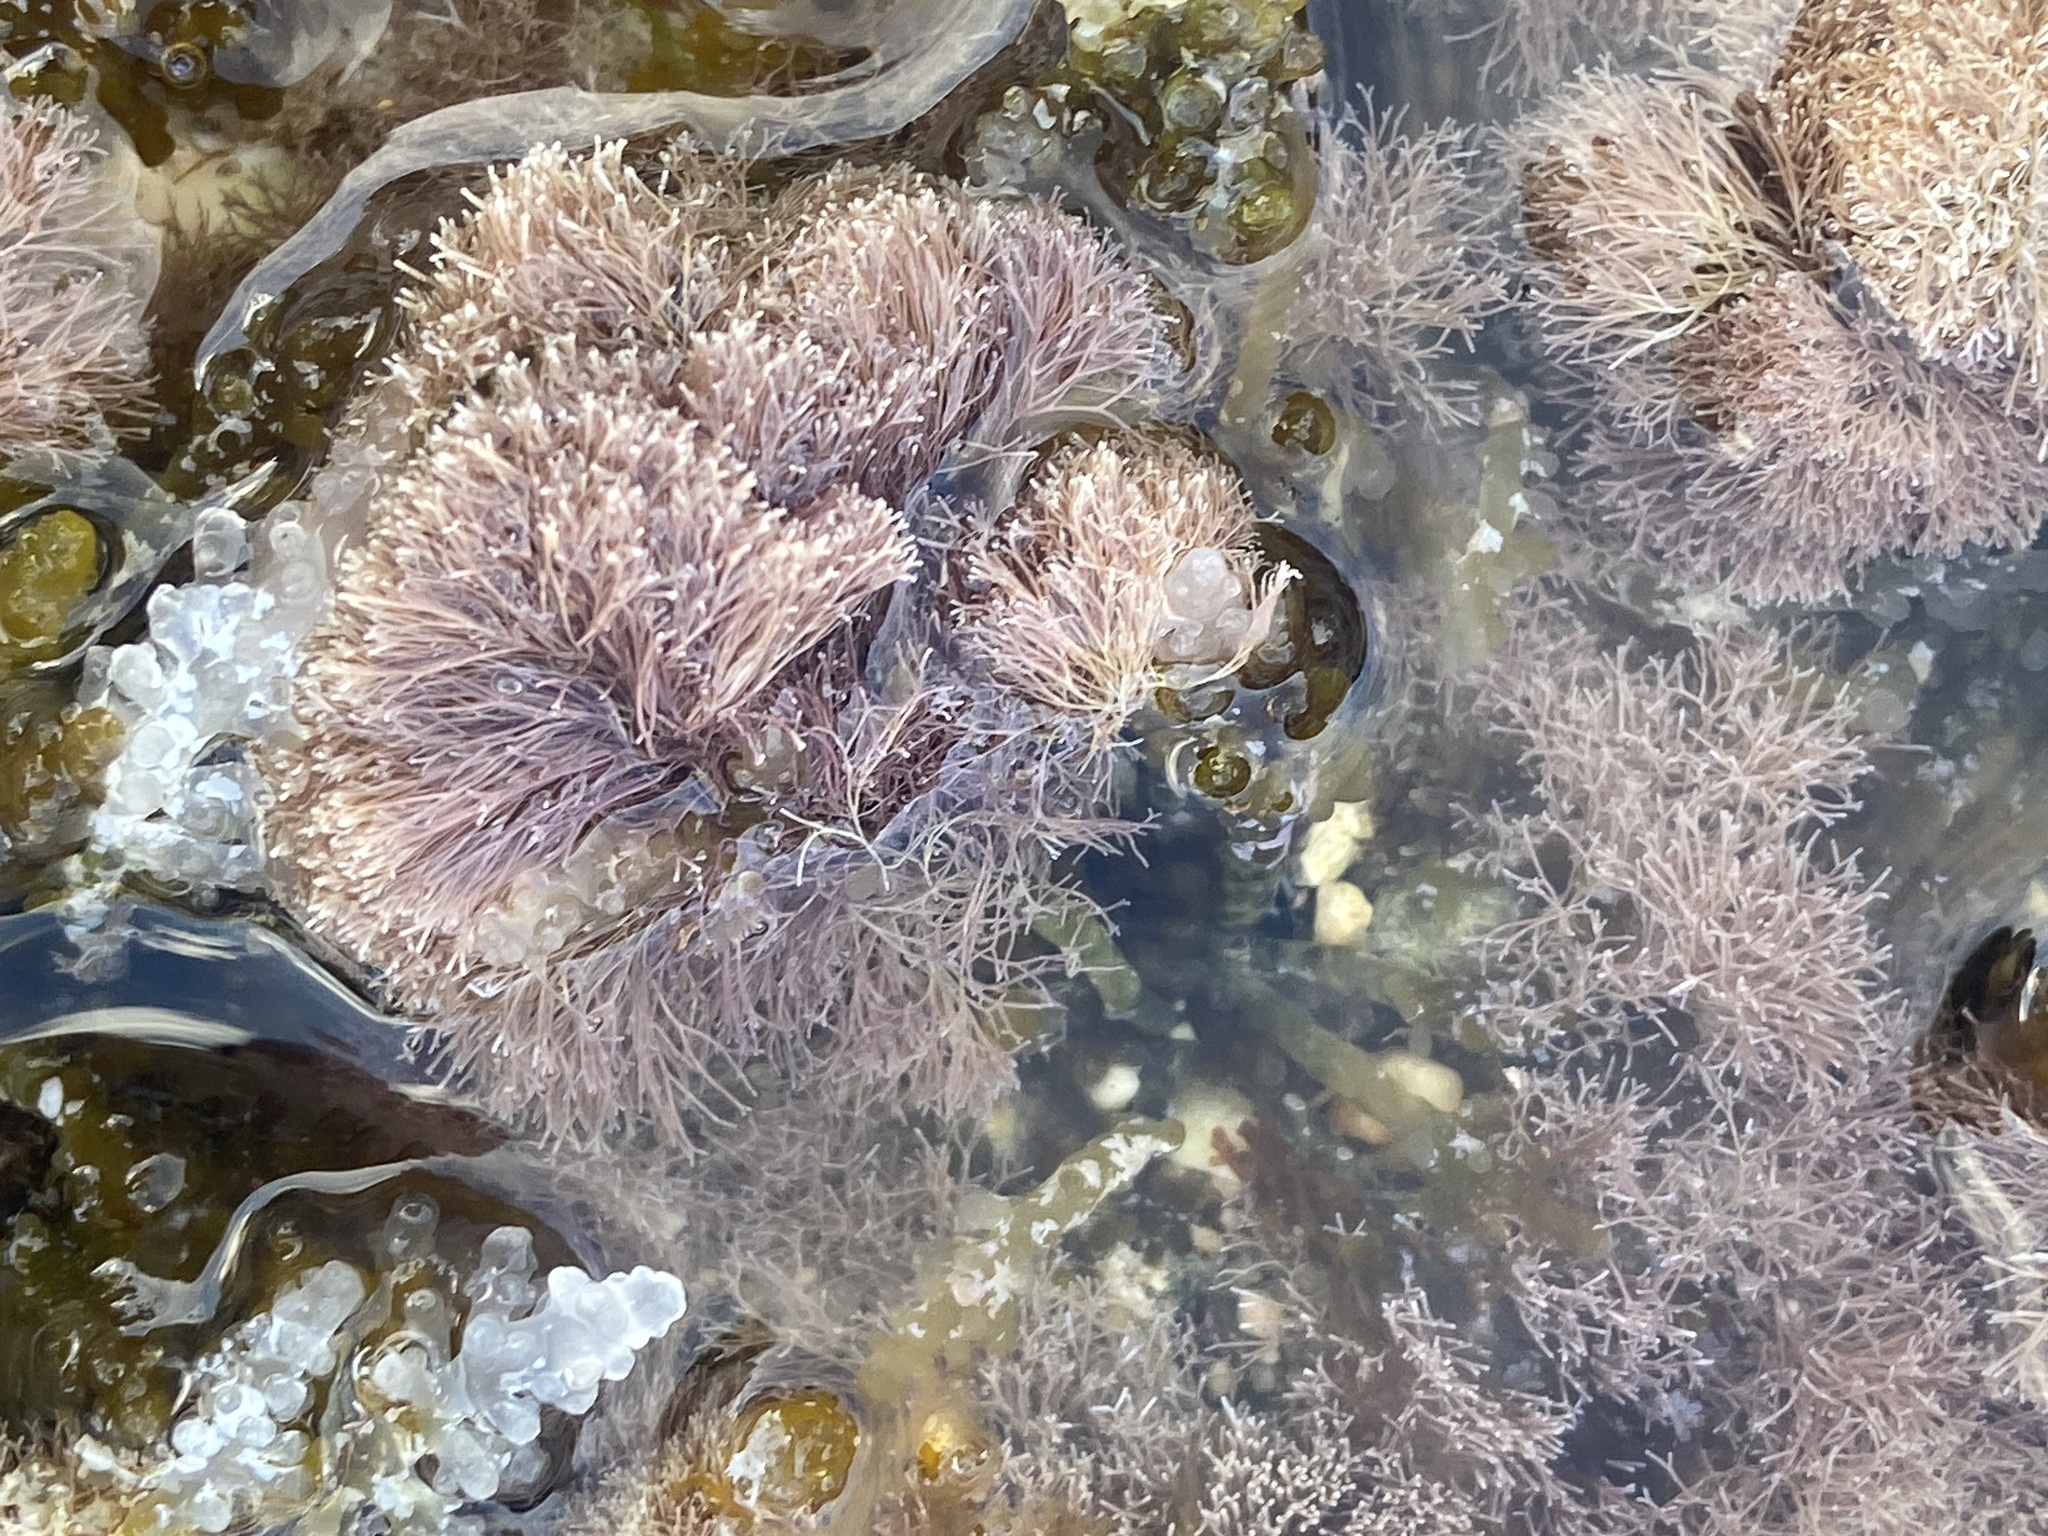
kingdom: Plantae
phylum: Rhodophyta
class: Florideophyceae
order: Corallinales
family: Corallinaceae
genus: Jania
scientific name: Jania
